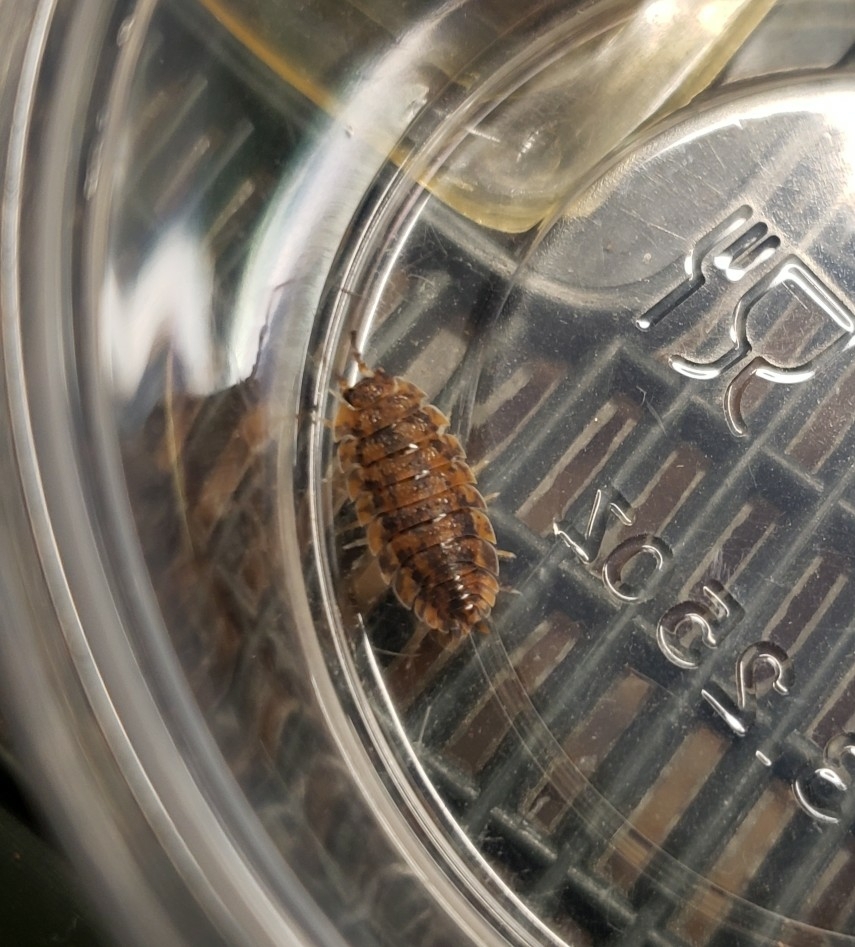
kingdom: Animalia
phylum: Arthropoda
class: Malacostraca
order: Isopoda
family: Porcellionidae
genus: Porcellio
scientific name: Porcellio scaber
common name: Common rough woodlouse
